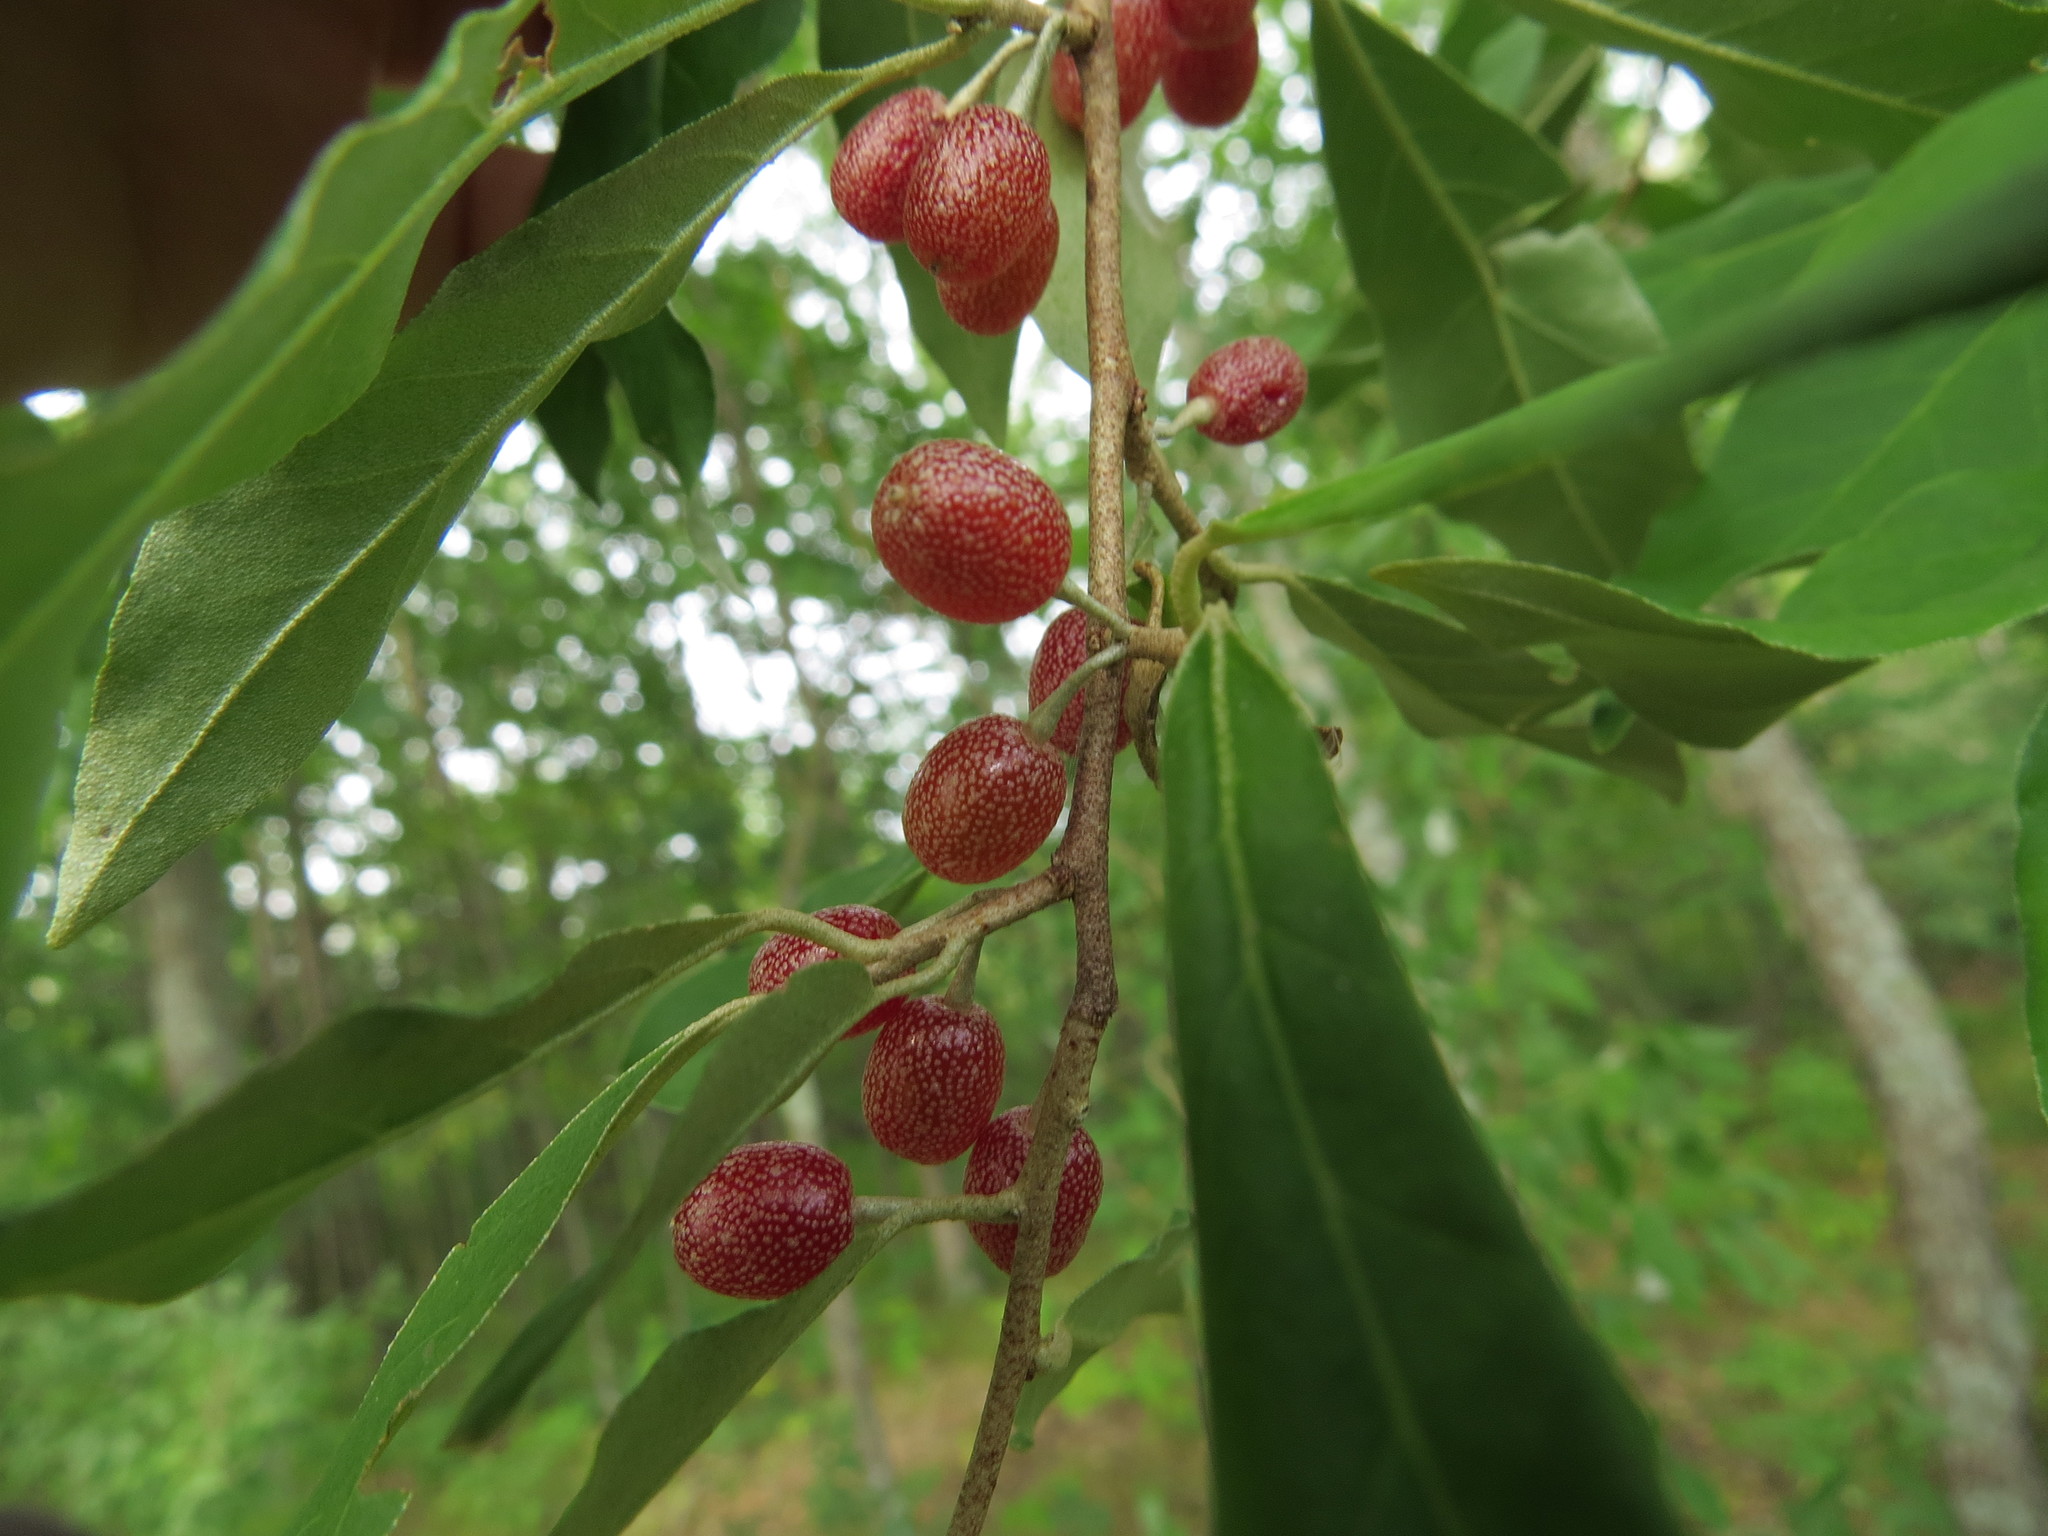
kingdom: Plantae
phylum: Tracheophyta
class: Magnoliopsida
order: Rosales
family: Elaeagnaceae
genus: Elaeagnus
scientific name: Elaeagnus umbellata
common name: Autumn olive
